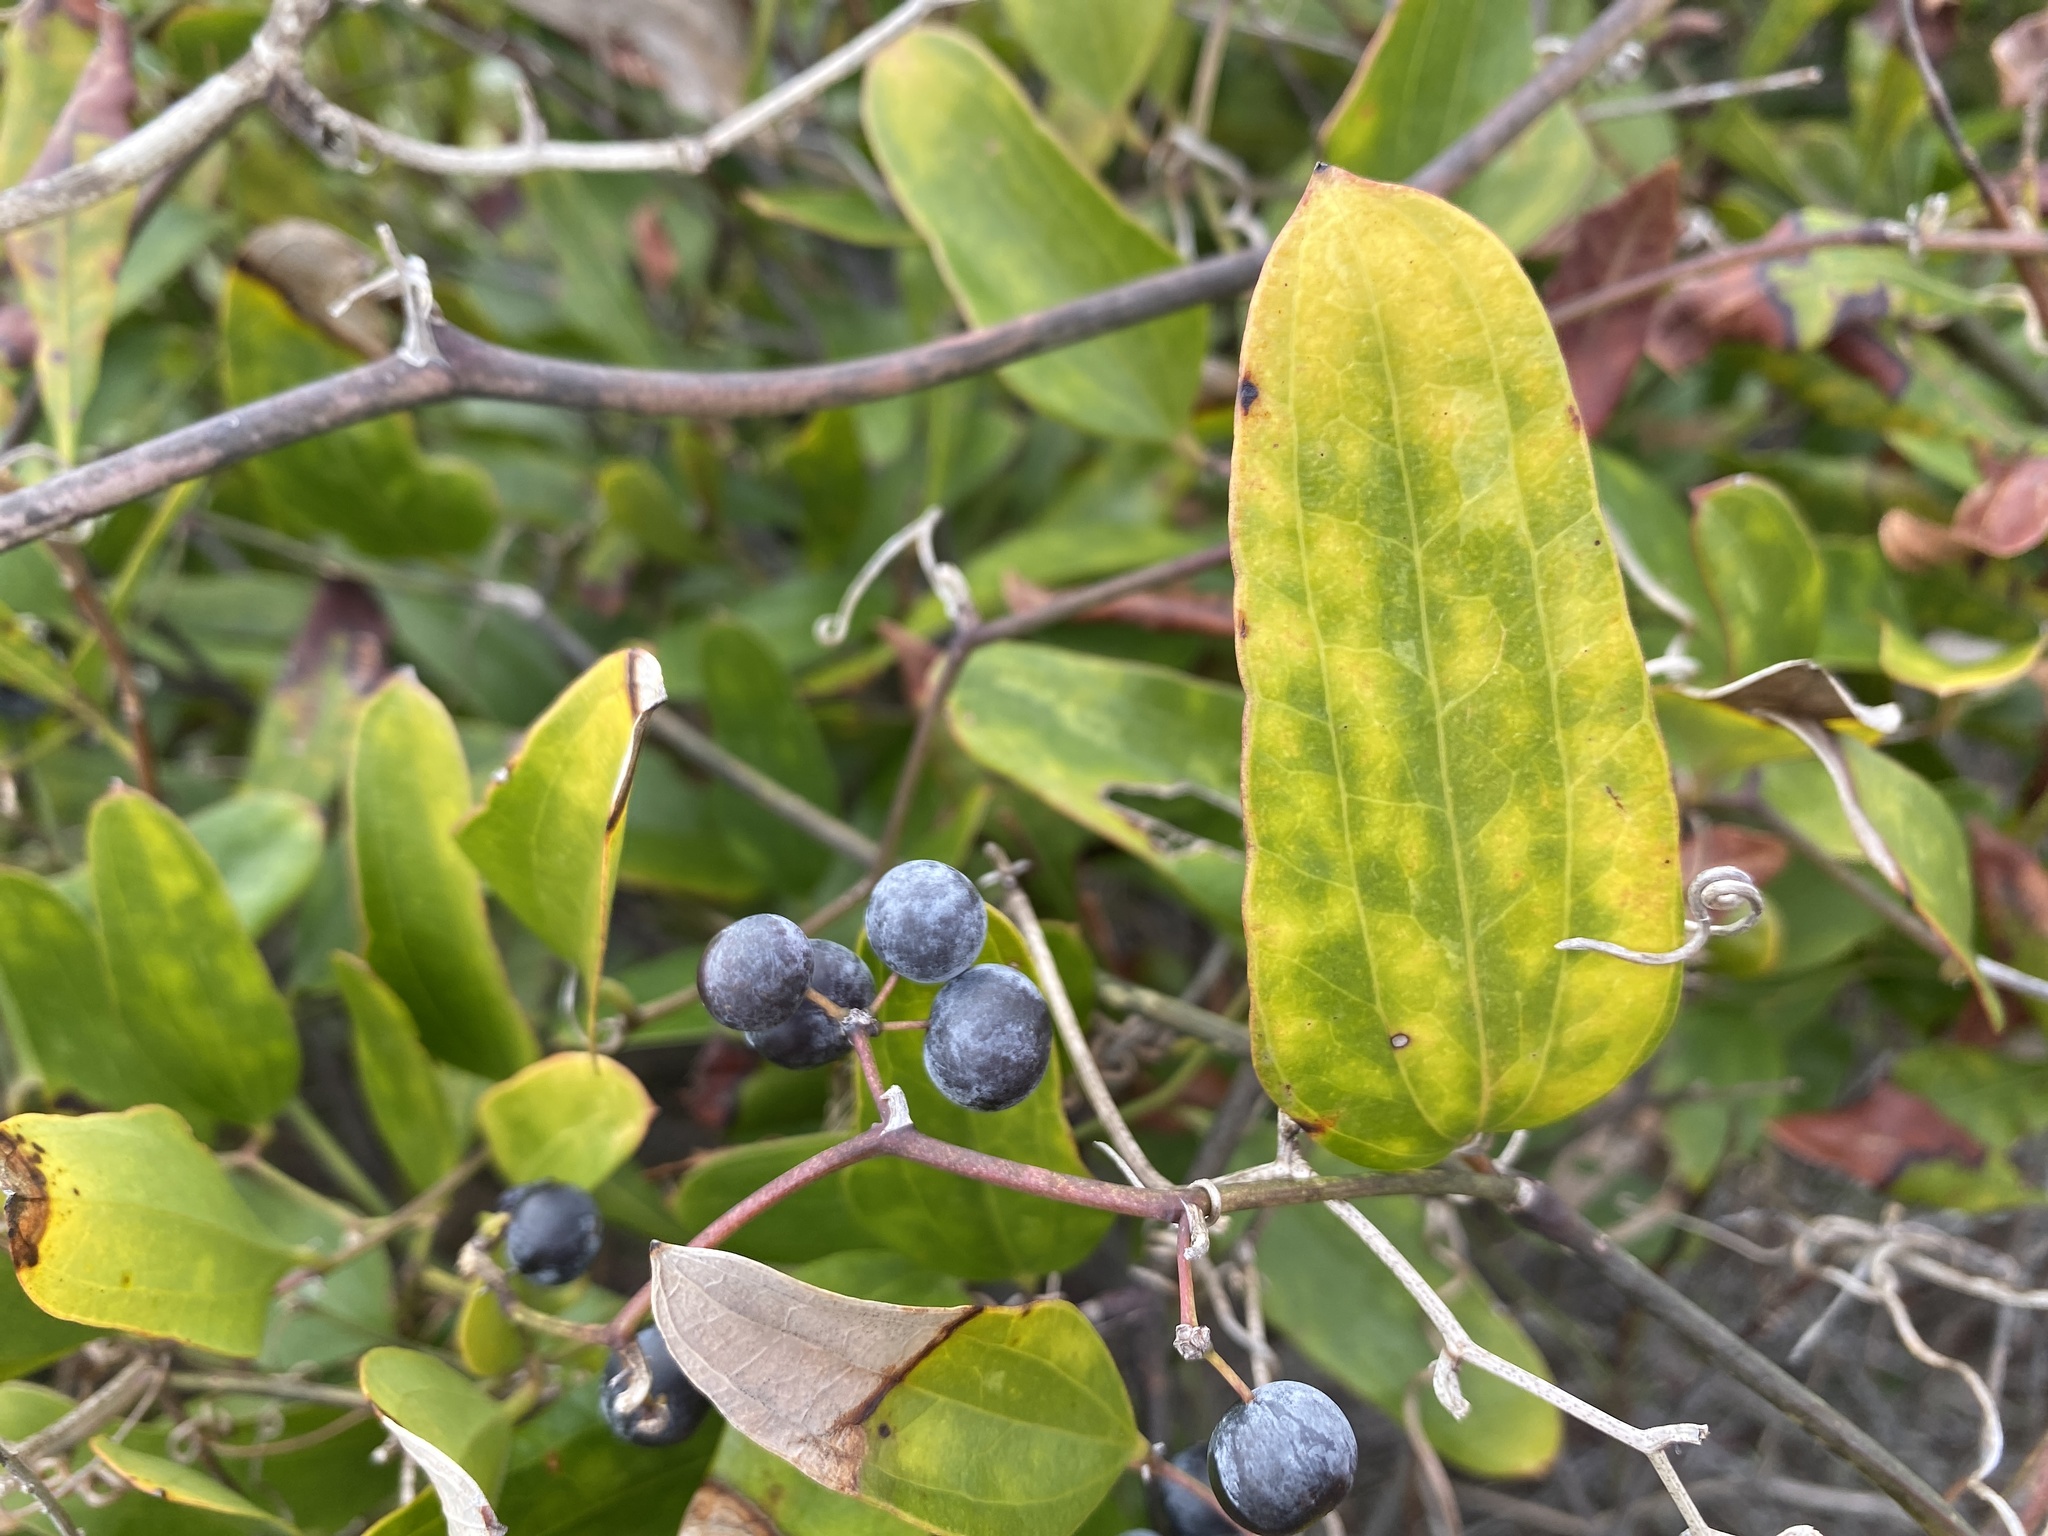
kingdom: Plantae
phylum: Tracheophyta
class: Liliopsida
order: Liliales
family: Smilacaceae
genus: Smilax
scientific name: Smilax auriculata
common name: Wild bamboo
